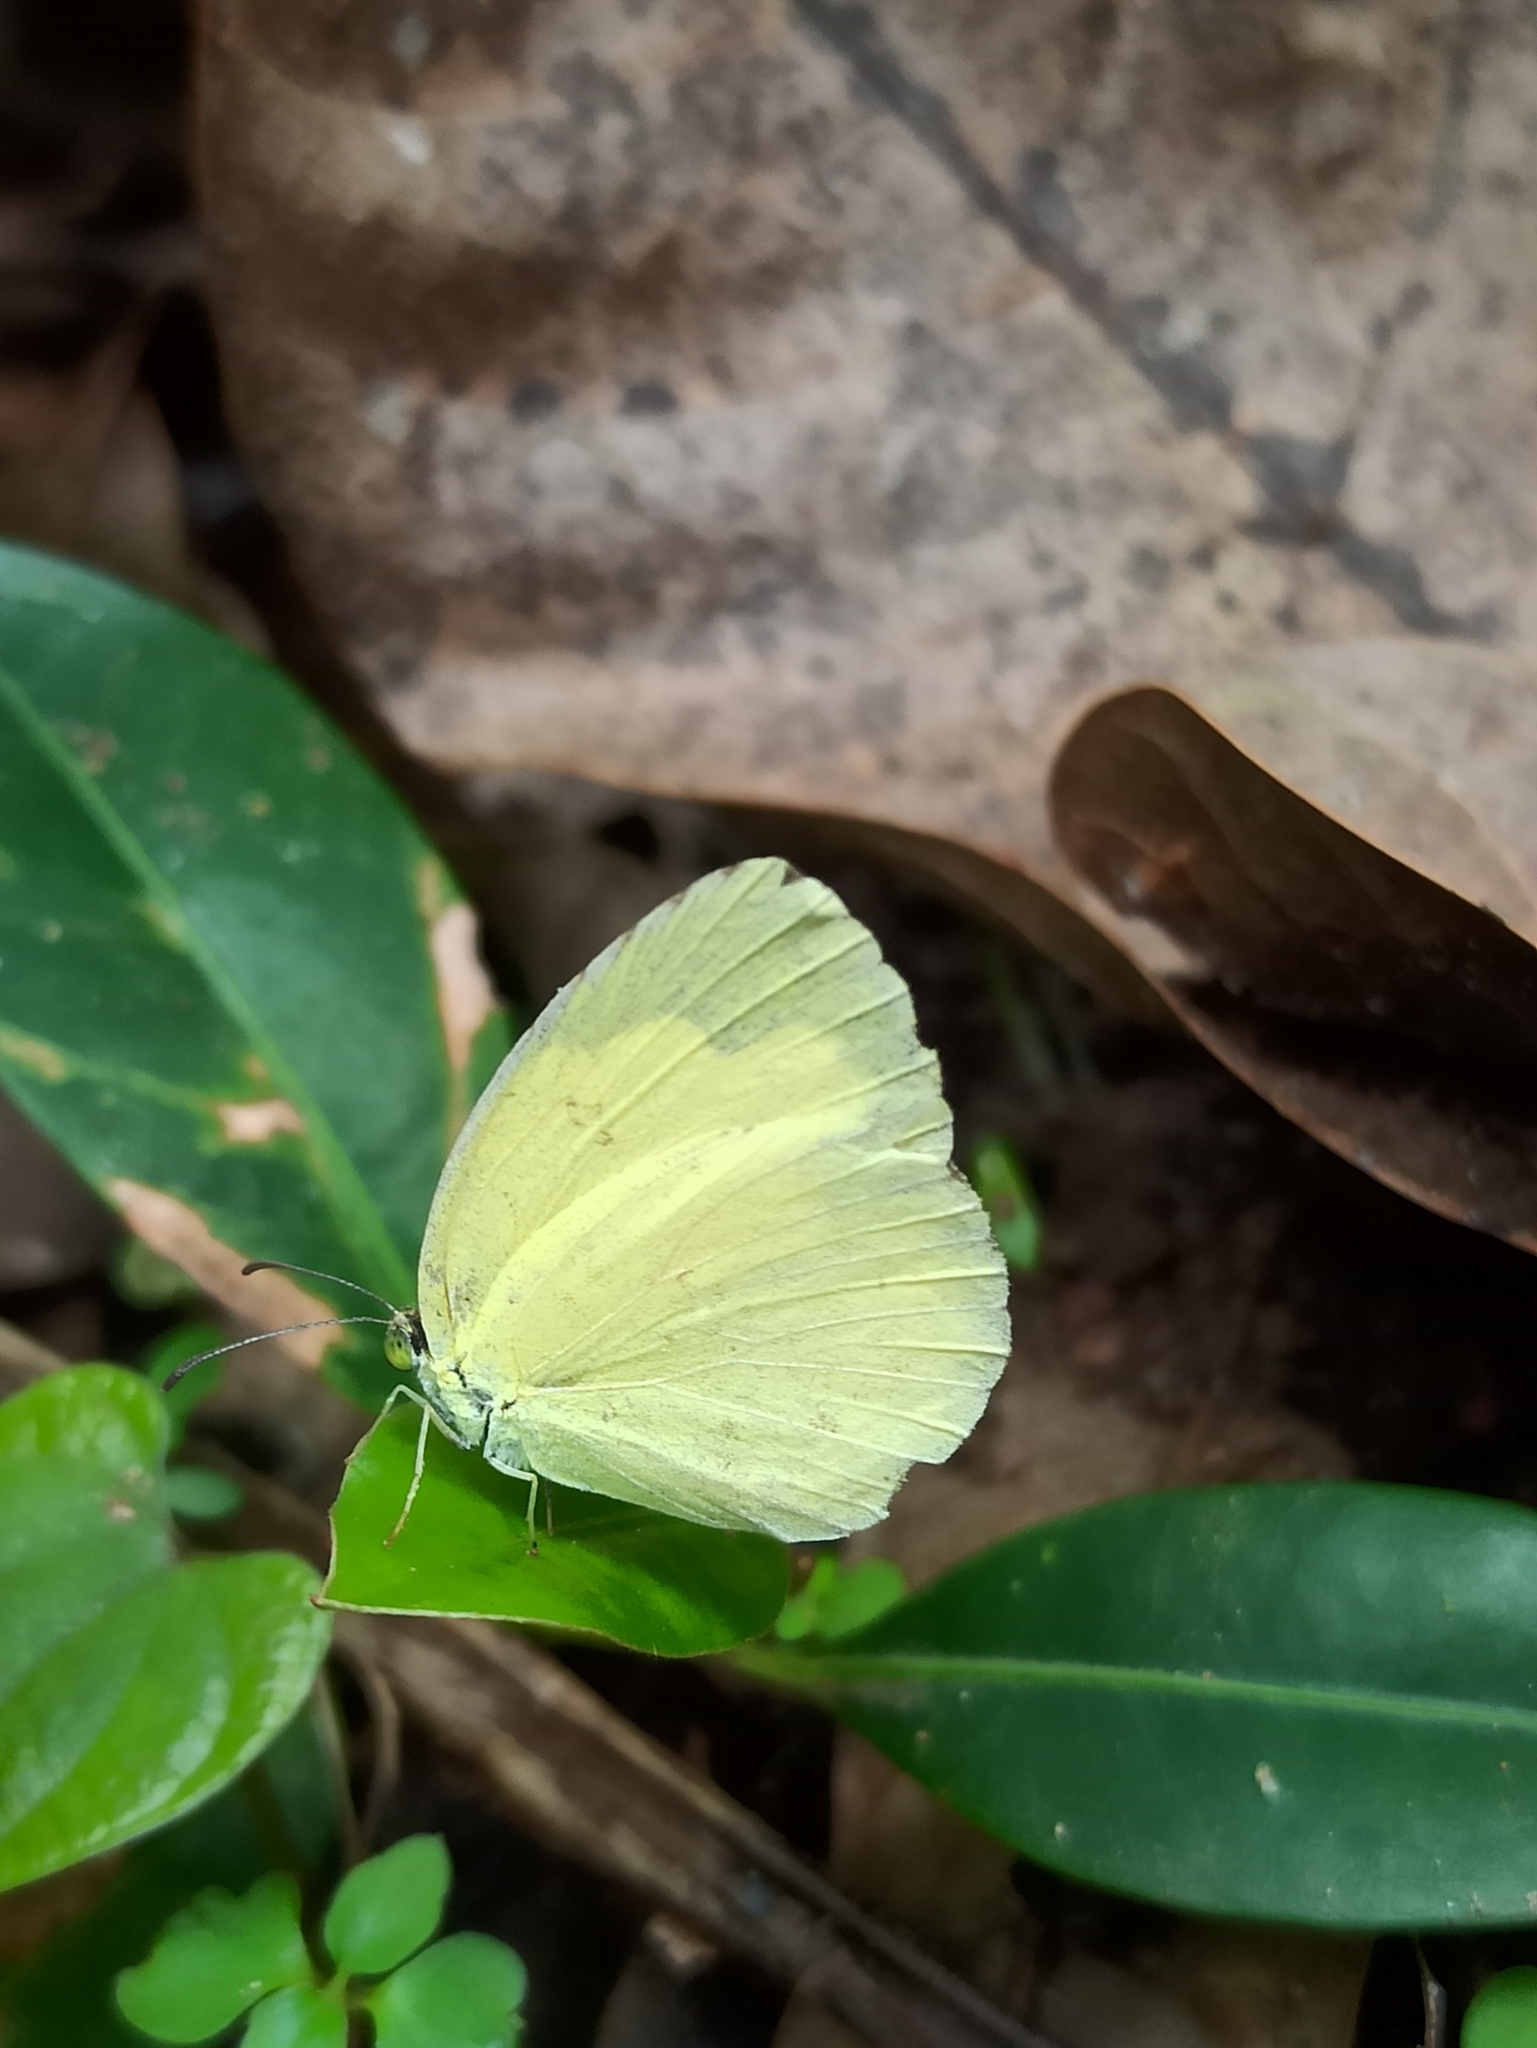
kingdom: Animalia
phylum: Arthropoda
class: Insecta
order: Lepidoptera
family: Pieridae
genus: Eurema
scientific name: Eurema hecabe
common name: Pale grass yellow
